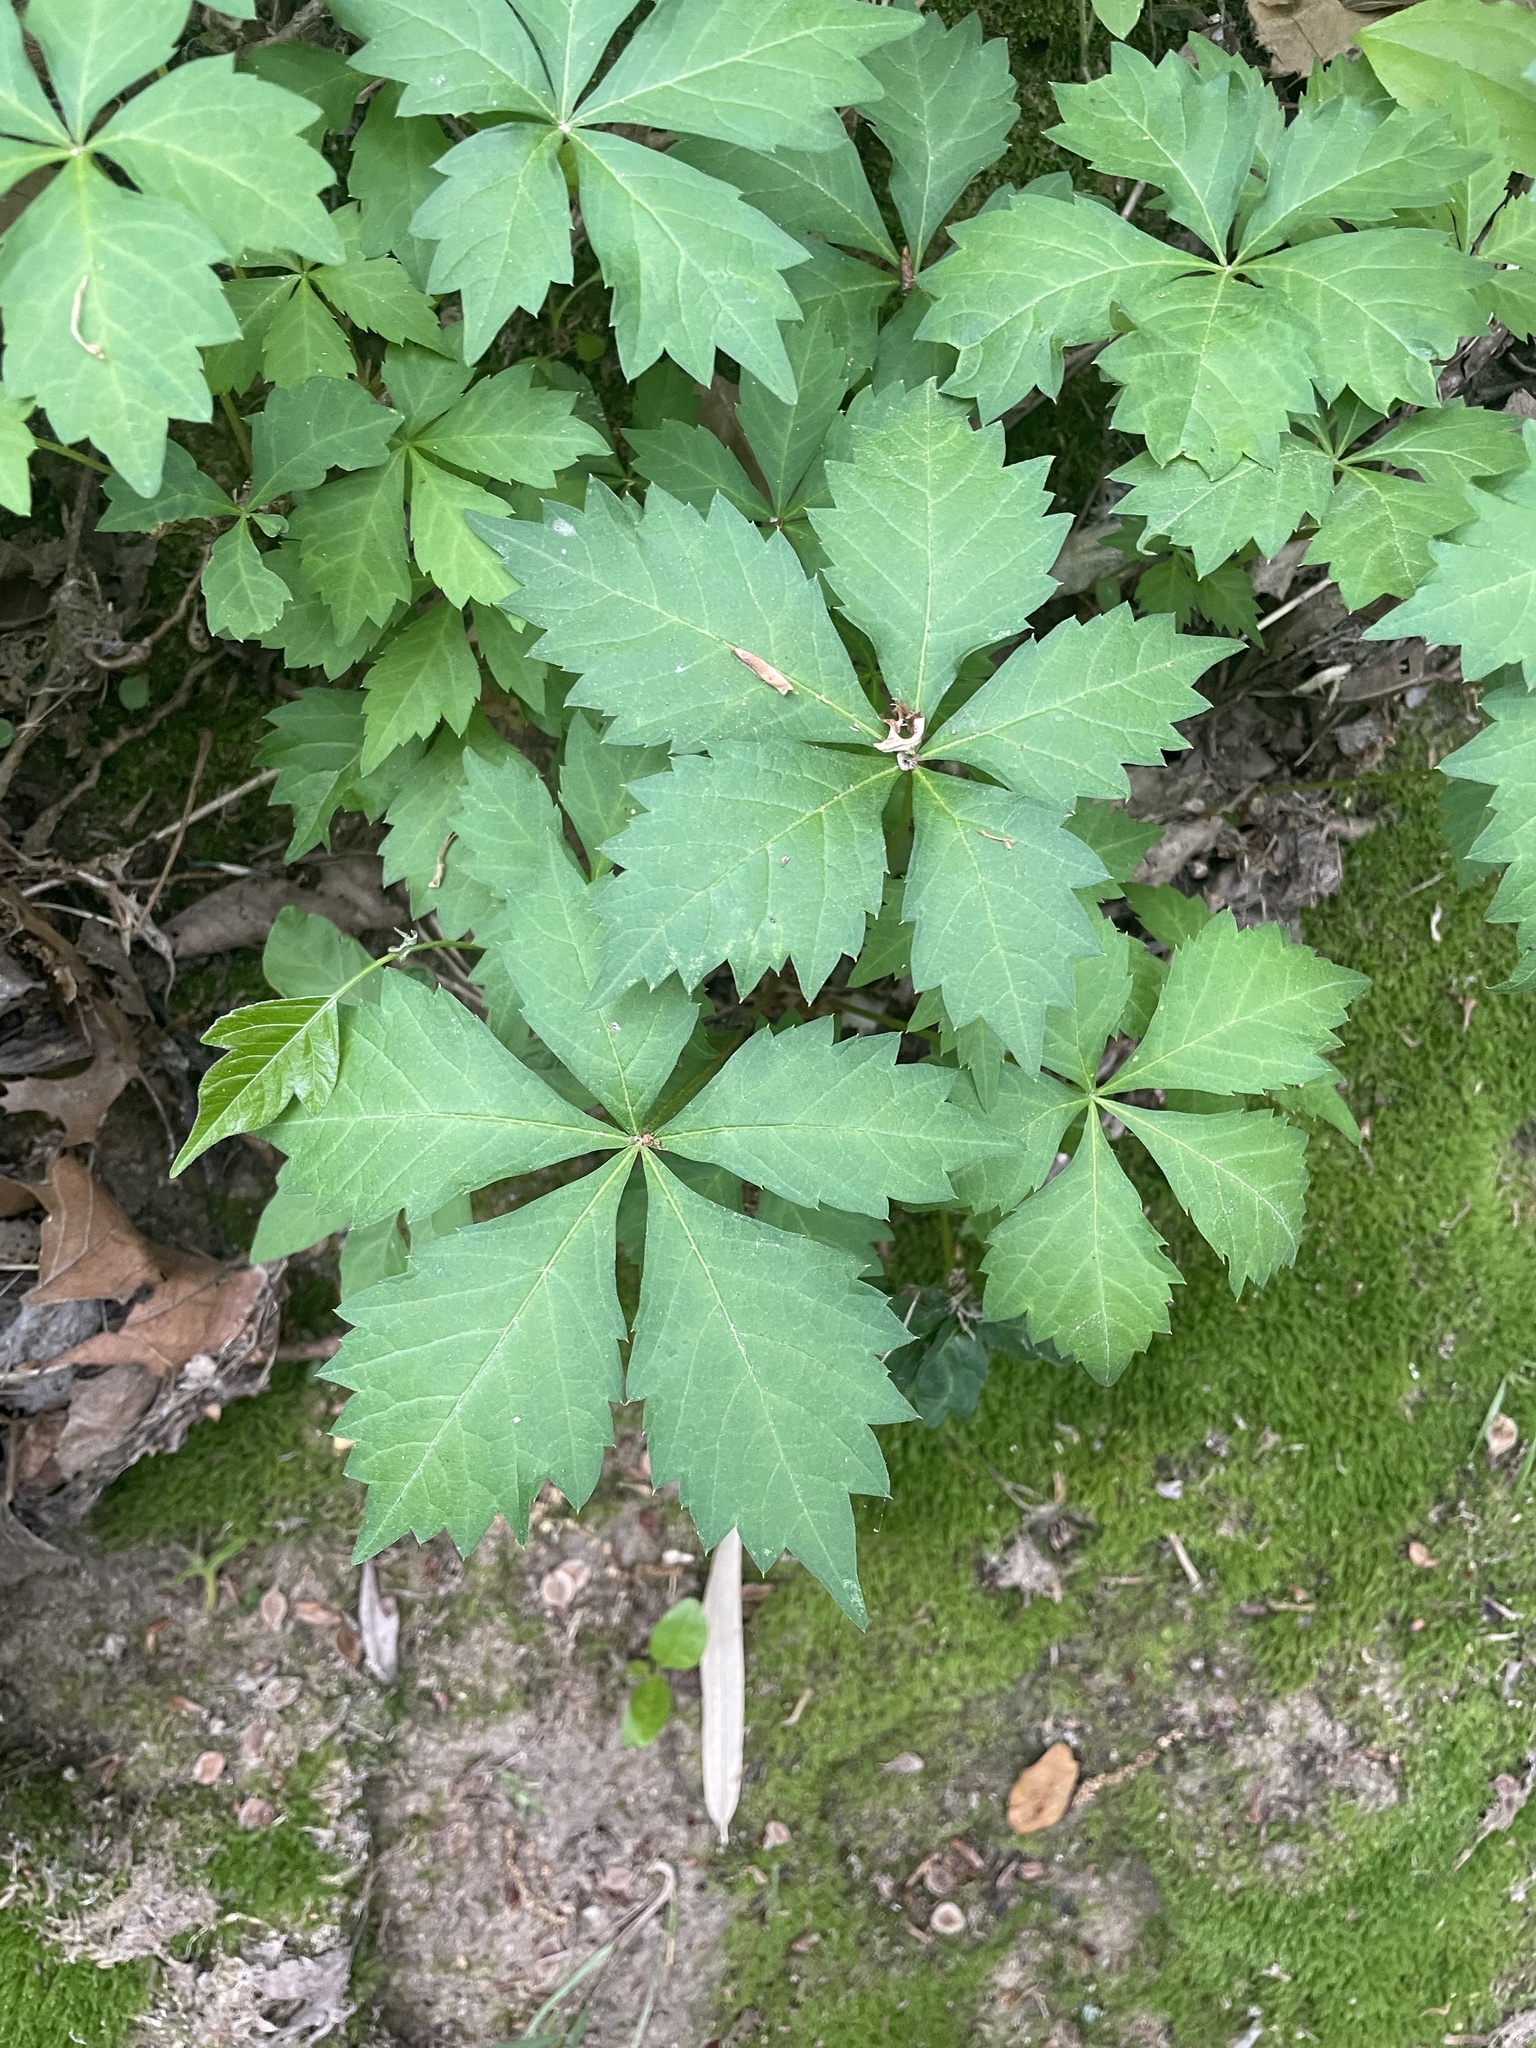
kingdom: Plantae
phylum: Tracheophyta
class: Magnoliopsida
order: Vitales
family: Vitaceae
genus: Parthenocissus
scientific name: Parthenocissus quinquefolia
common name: Virginia-creeper
